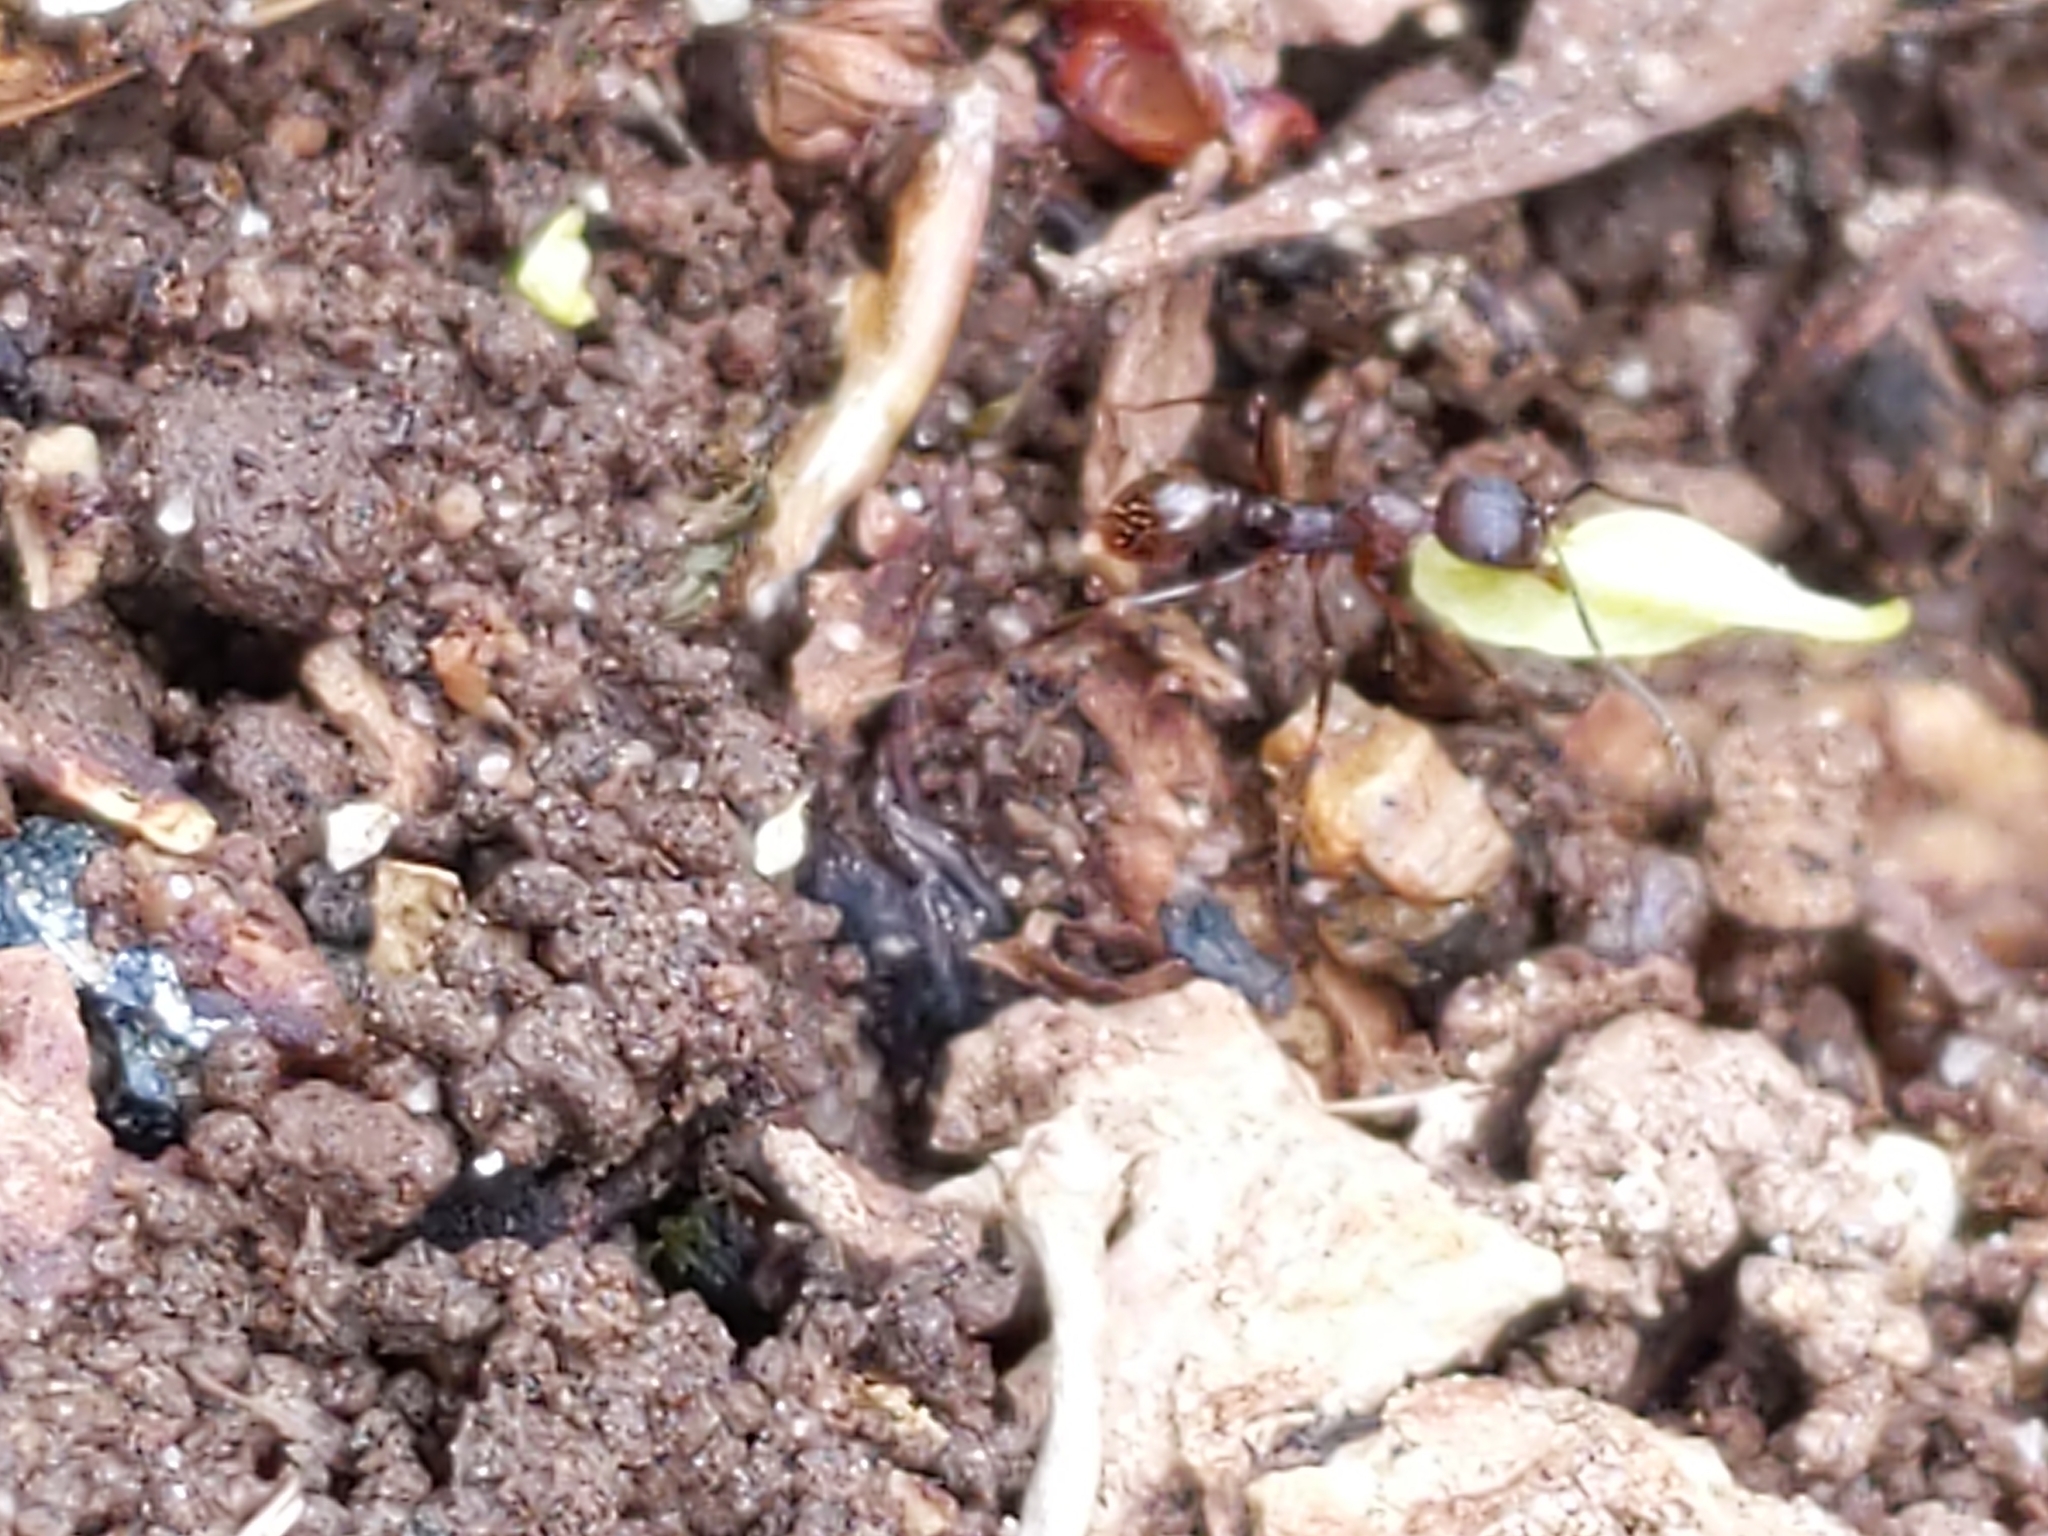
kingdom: Animalia
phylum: Arthropoda
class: Insecta
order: Hymenoptera
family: Formicidae
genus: Aphaenogaster
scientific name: Aphaenogaster treatae
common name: Treat's collared ant
